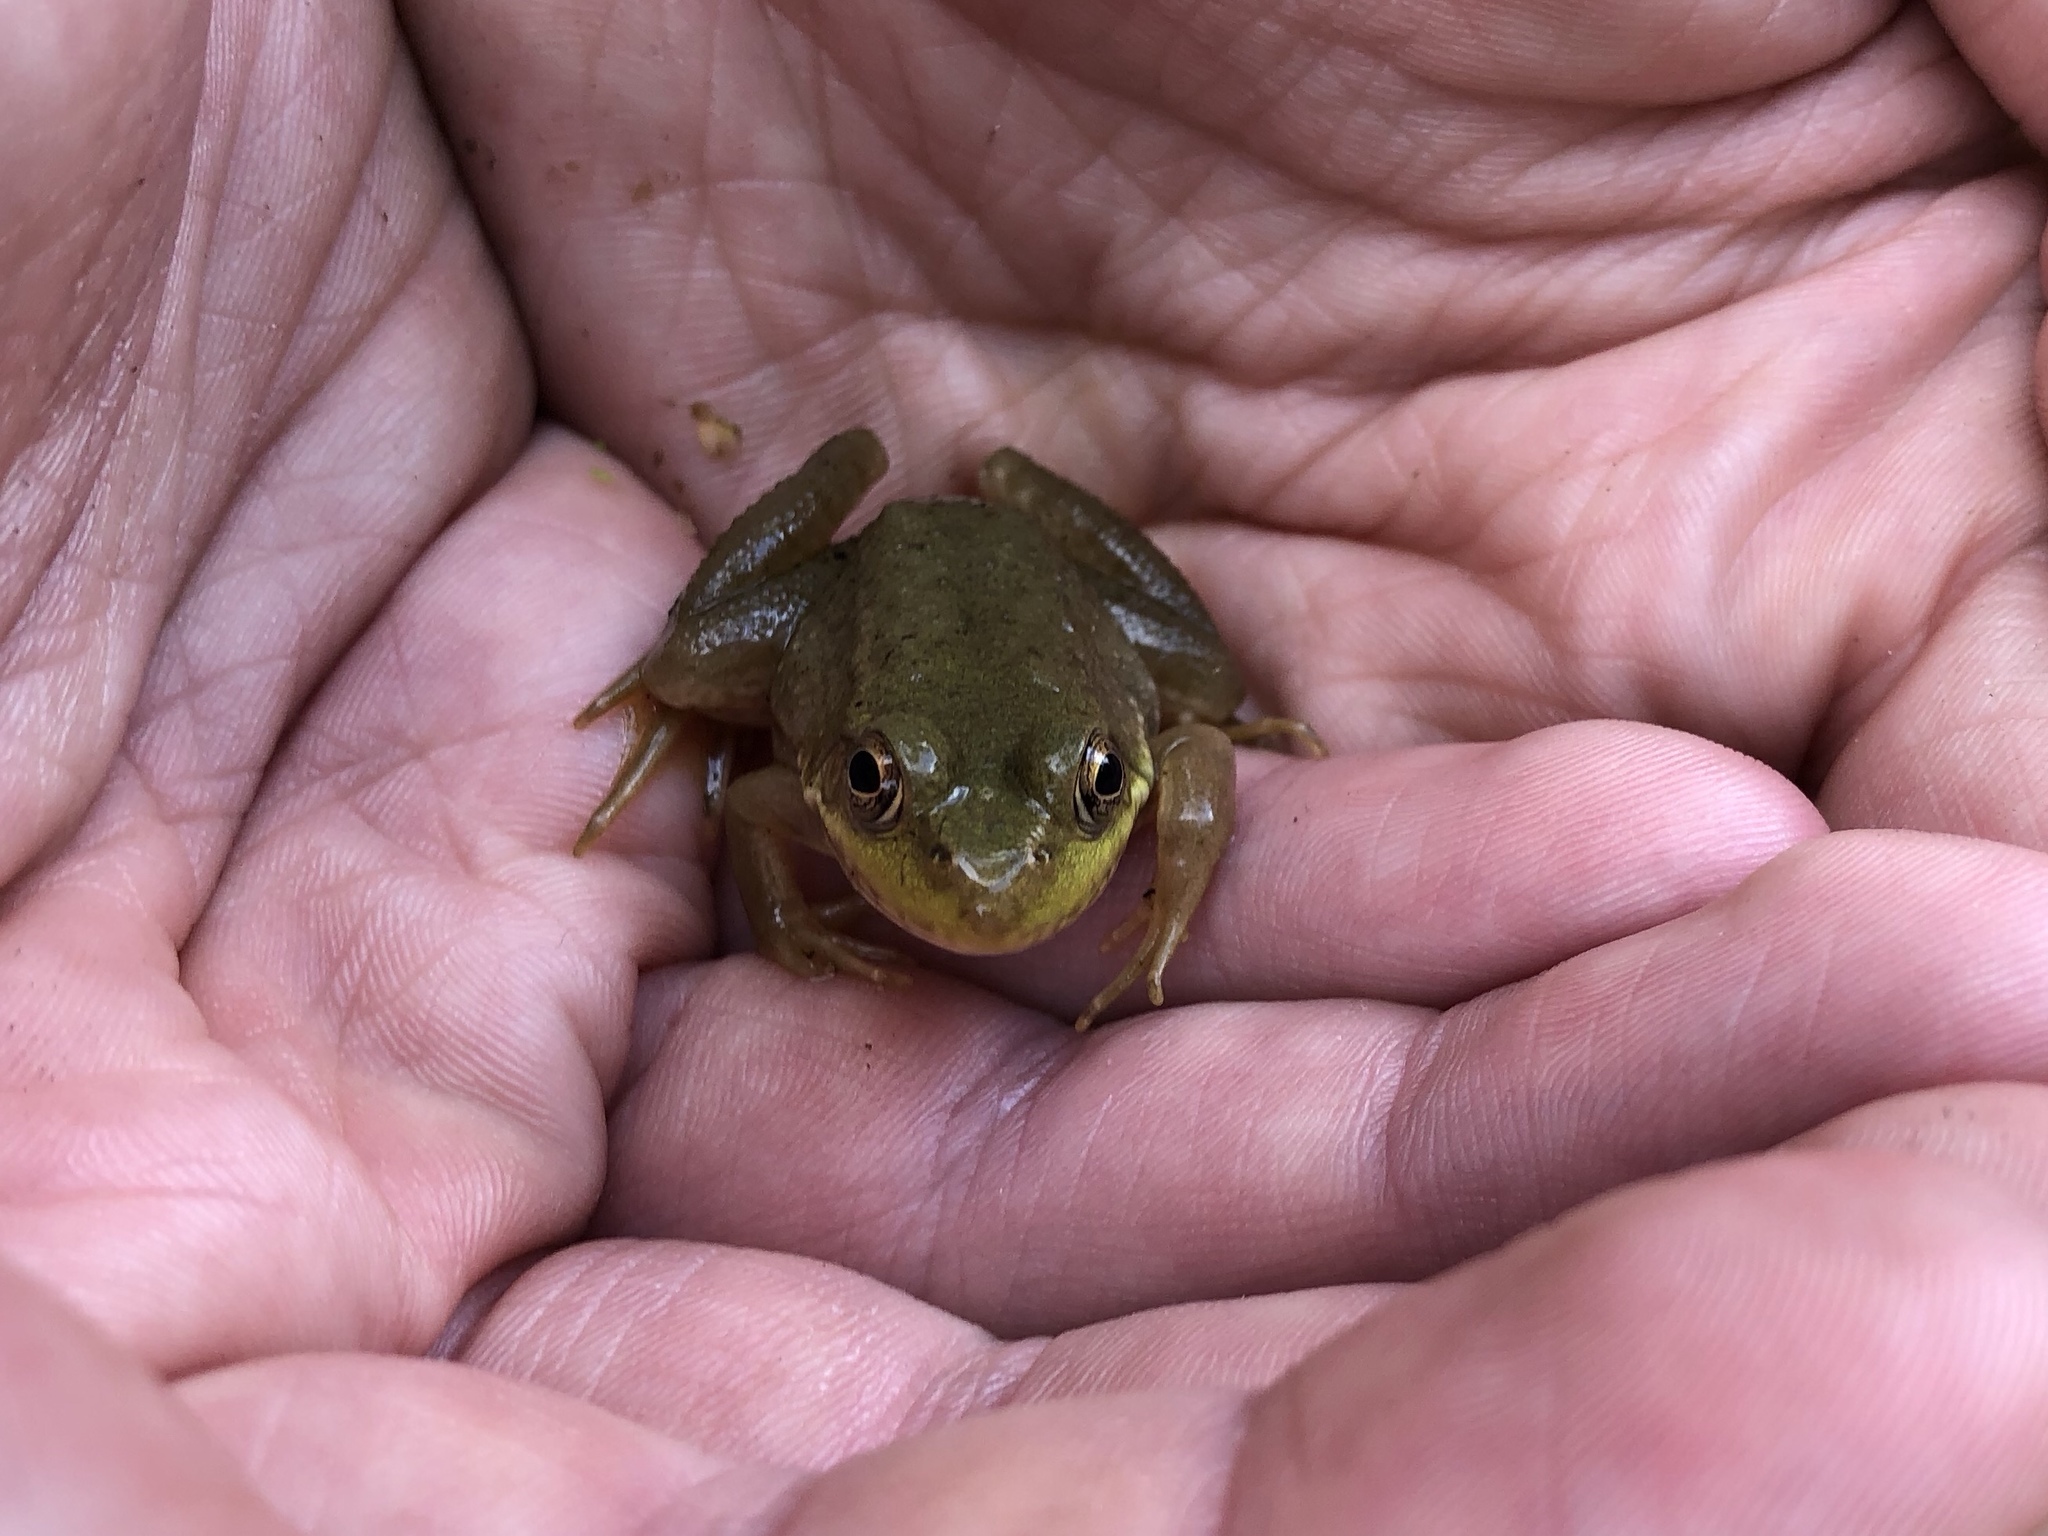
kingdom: Animalia
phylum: Chordata
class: Amphibia
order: Anura
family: Ranidae
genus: Lithobates
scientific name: Lithobates clamitans
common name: Green frog
